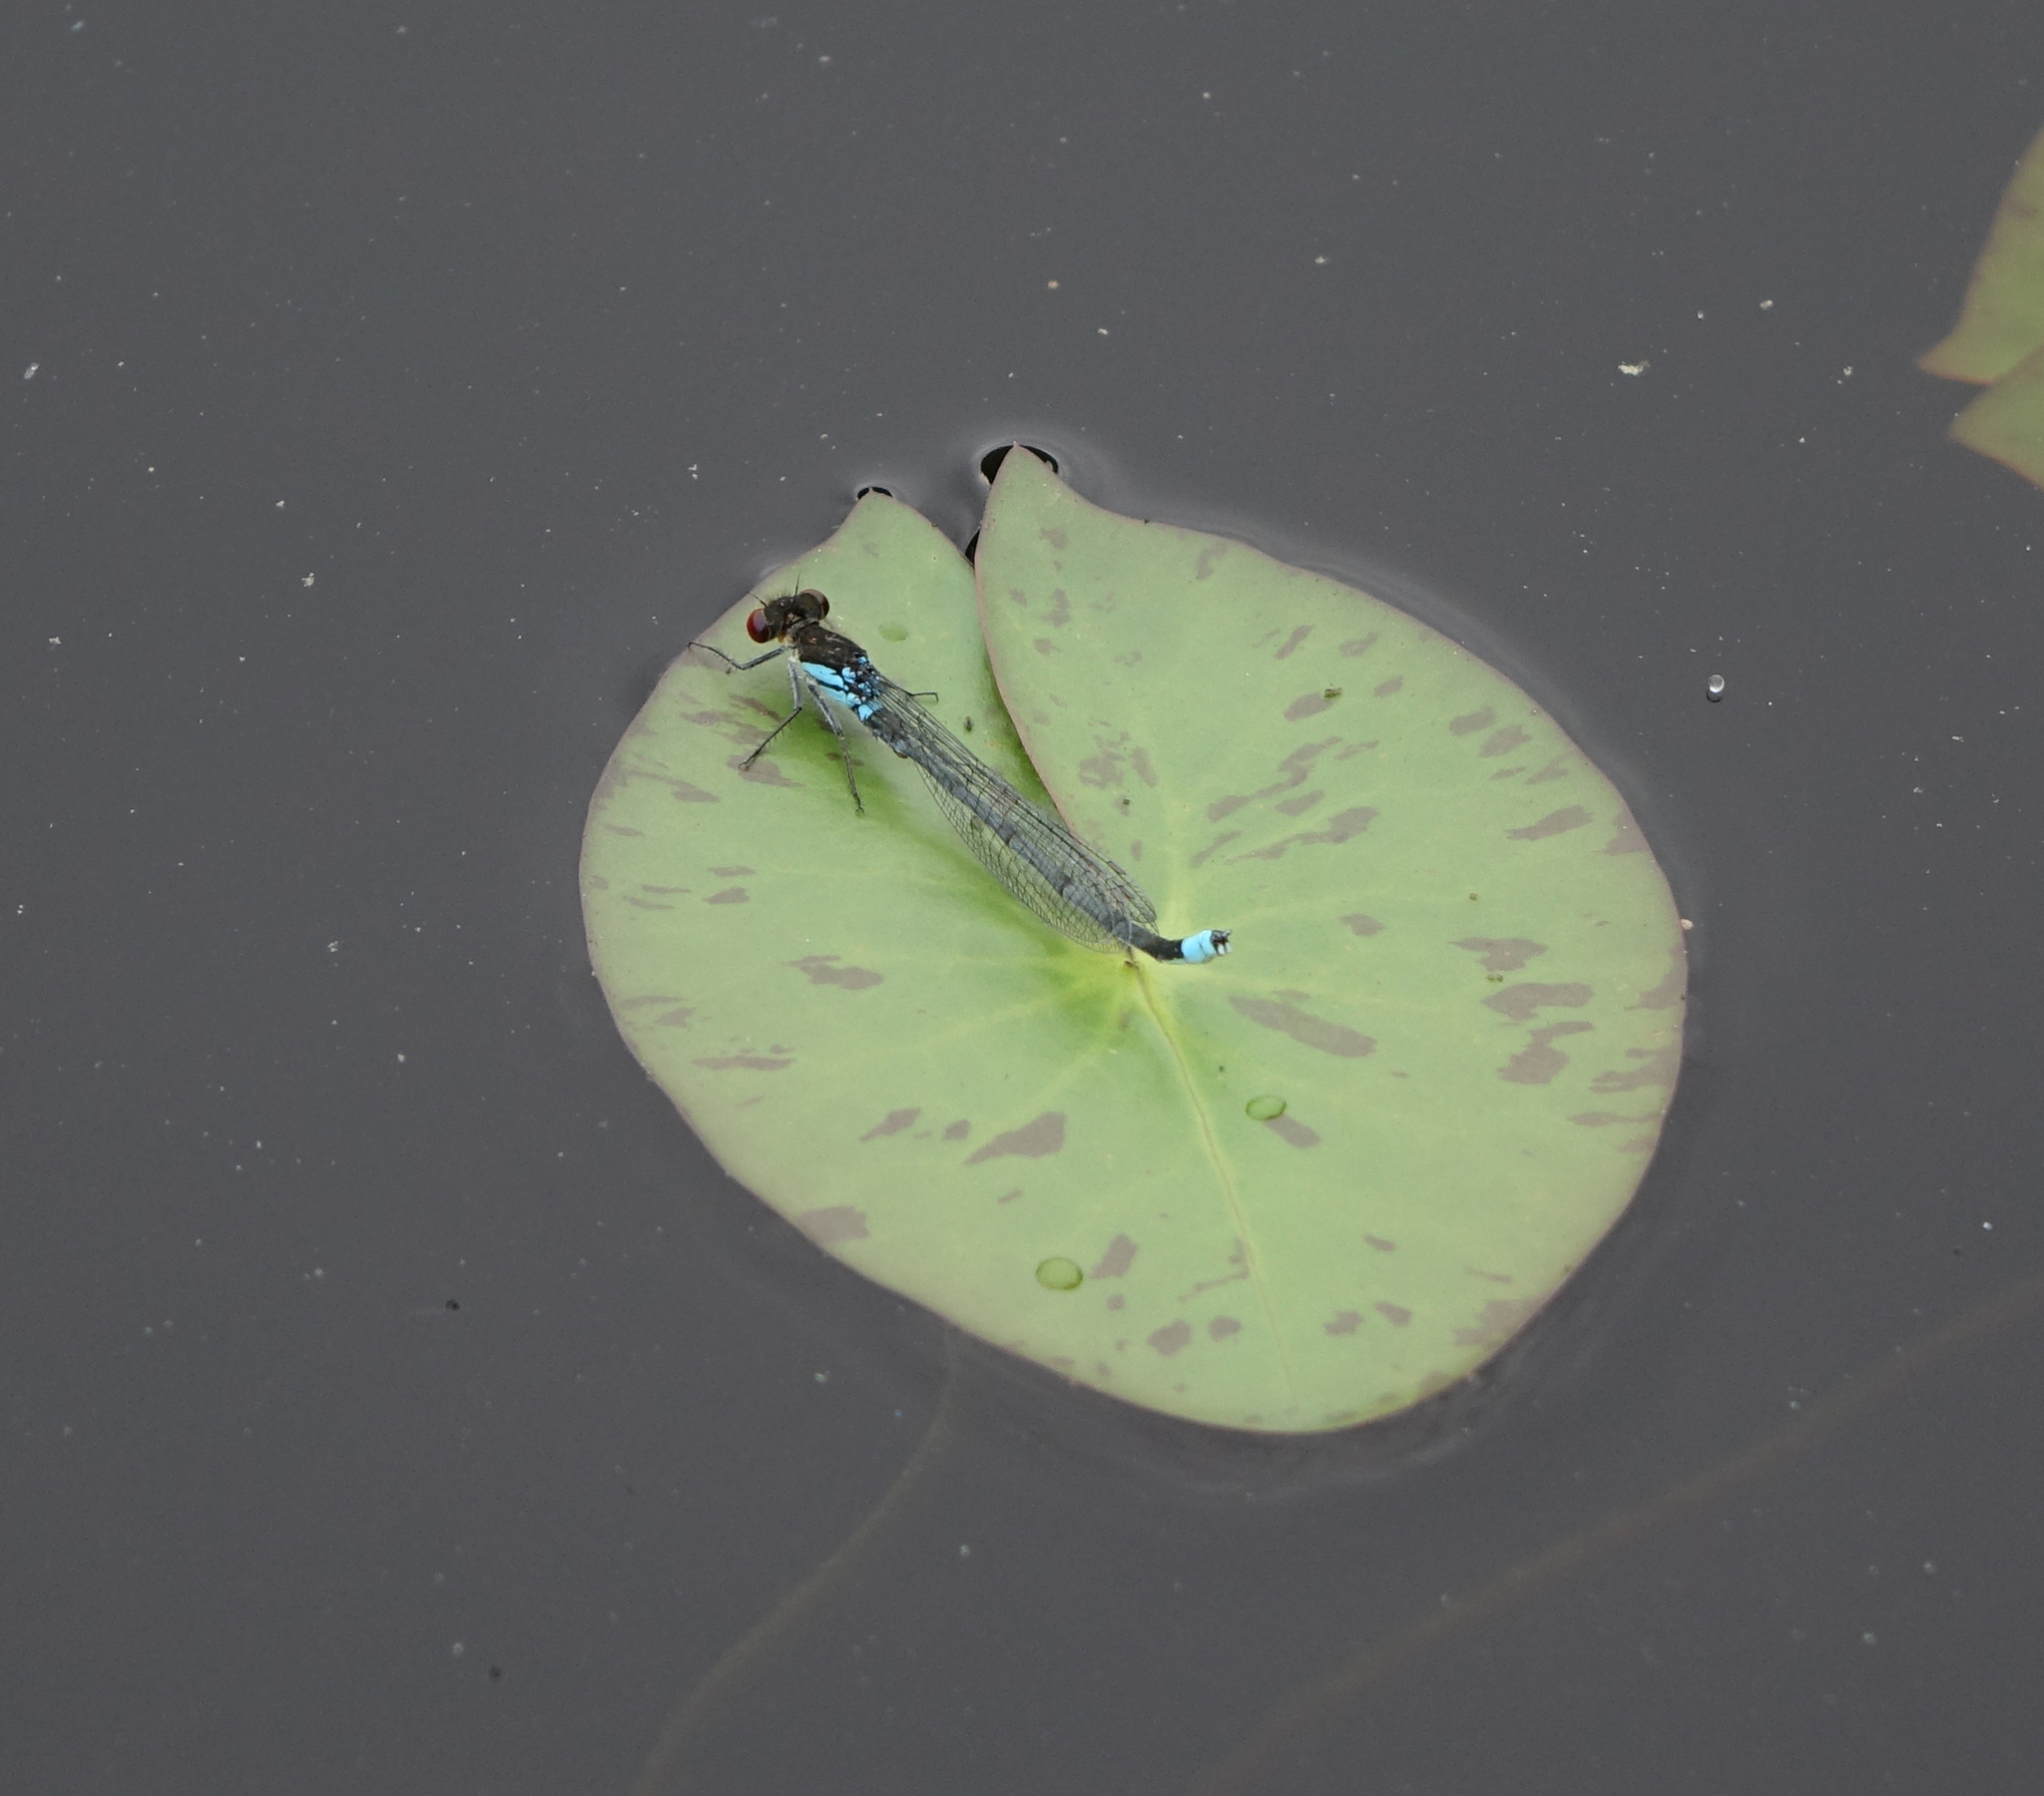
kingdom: Animalia
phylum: Arthropoda
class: Insecta
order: Odonata
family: Coenagrionidae
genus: Erythromma
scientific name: Erythromma najas
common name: Red-eyed damselfly
